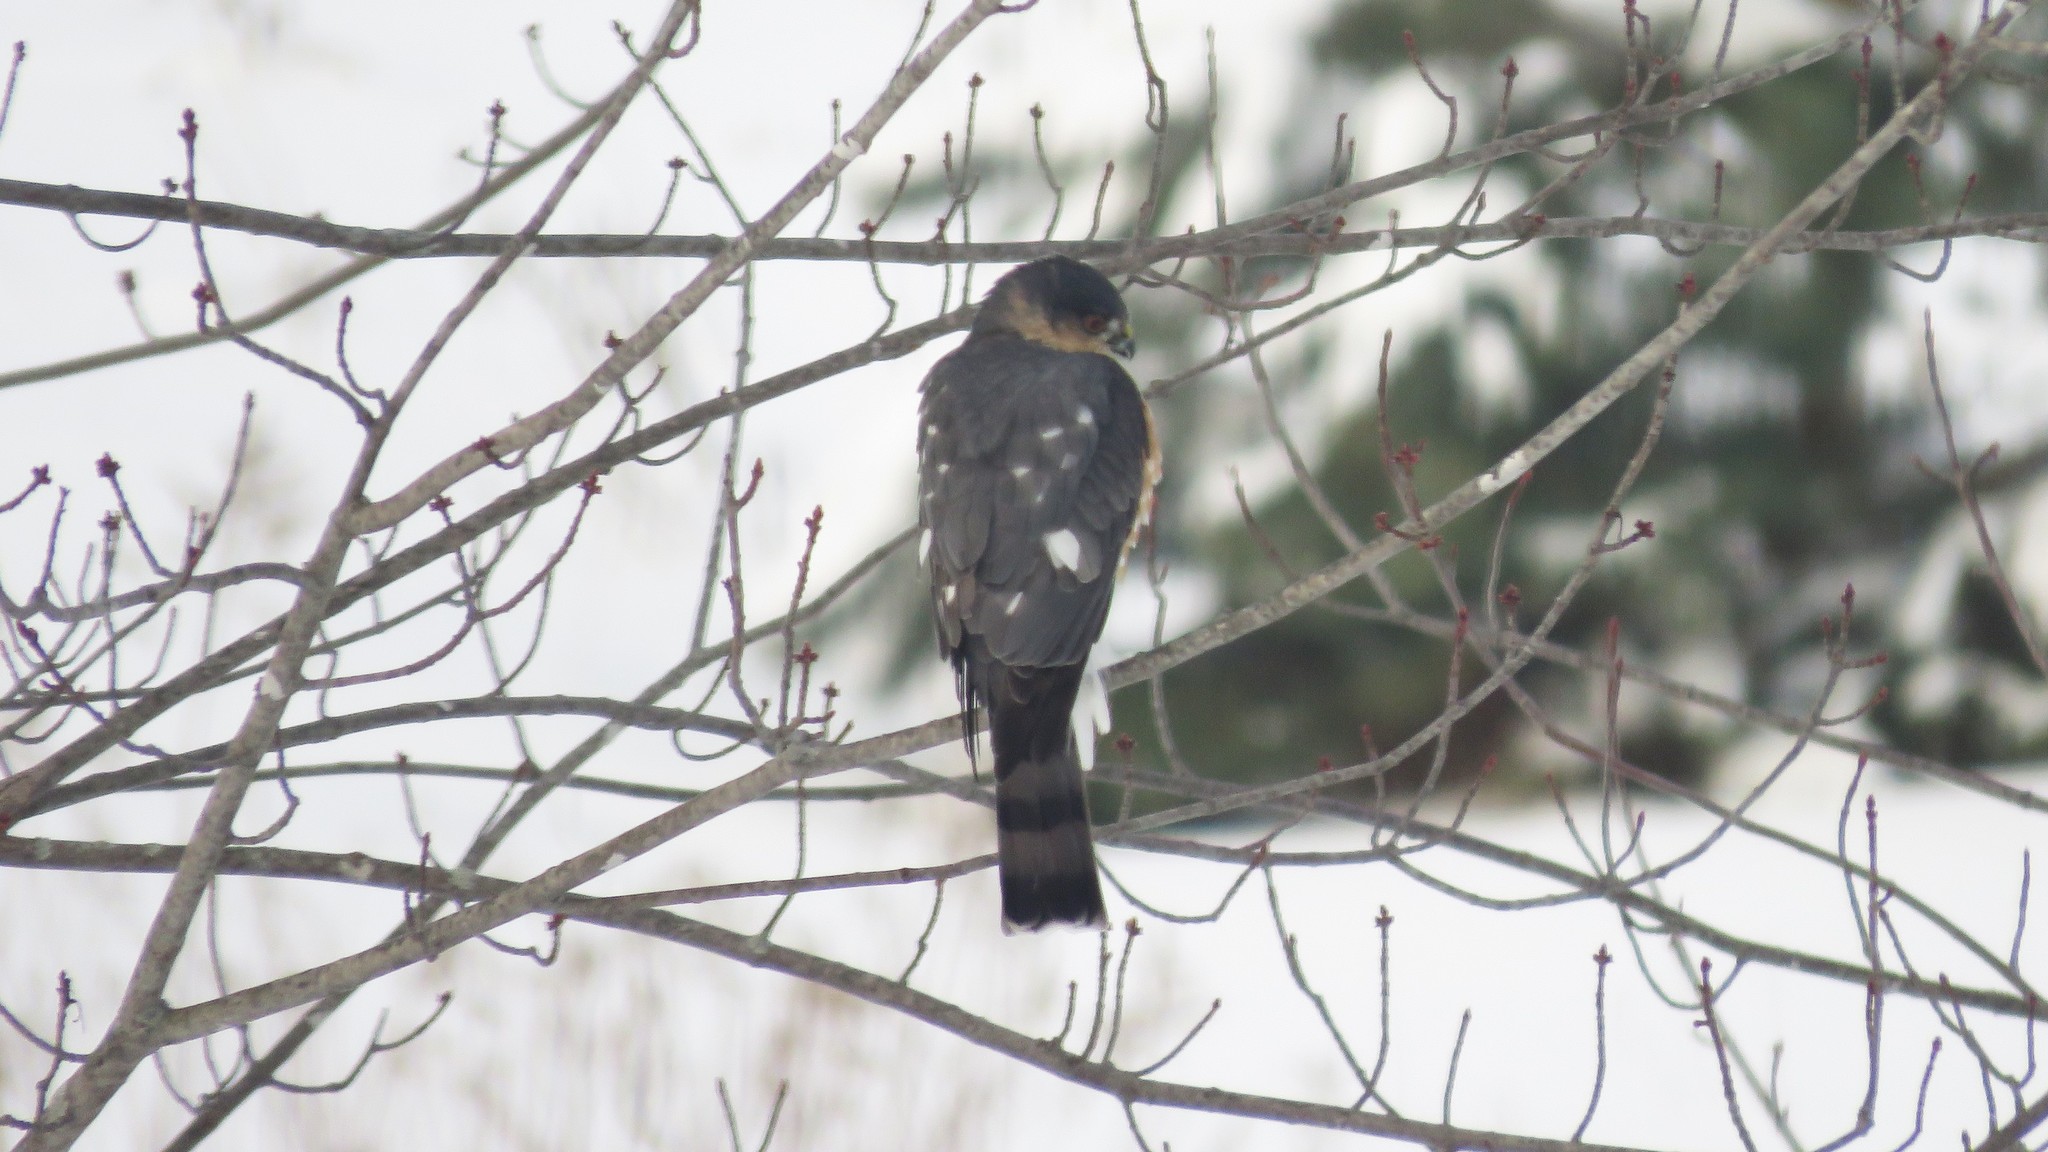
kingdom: Animalia
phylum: Chordata
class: Aves
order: Accipitriformes
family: Accipitridae
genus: Accipiter
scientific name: Accipiter striatus
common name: Sharp-shinned hawk
